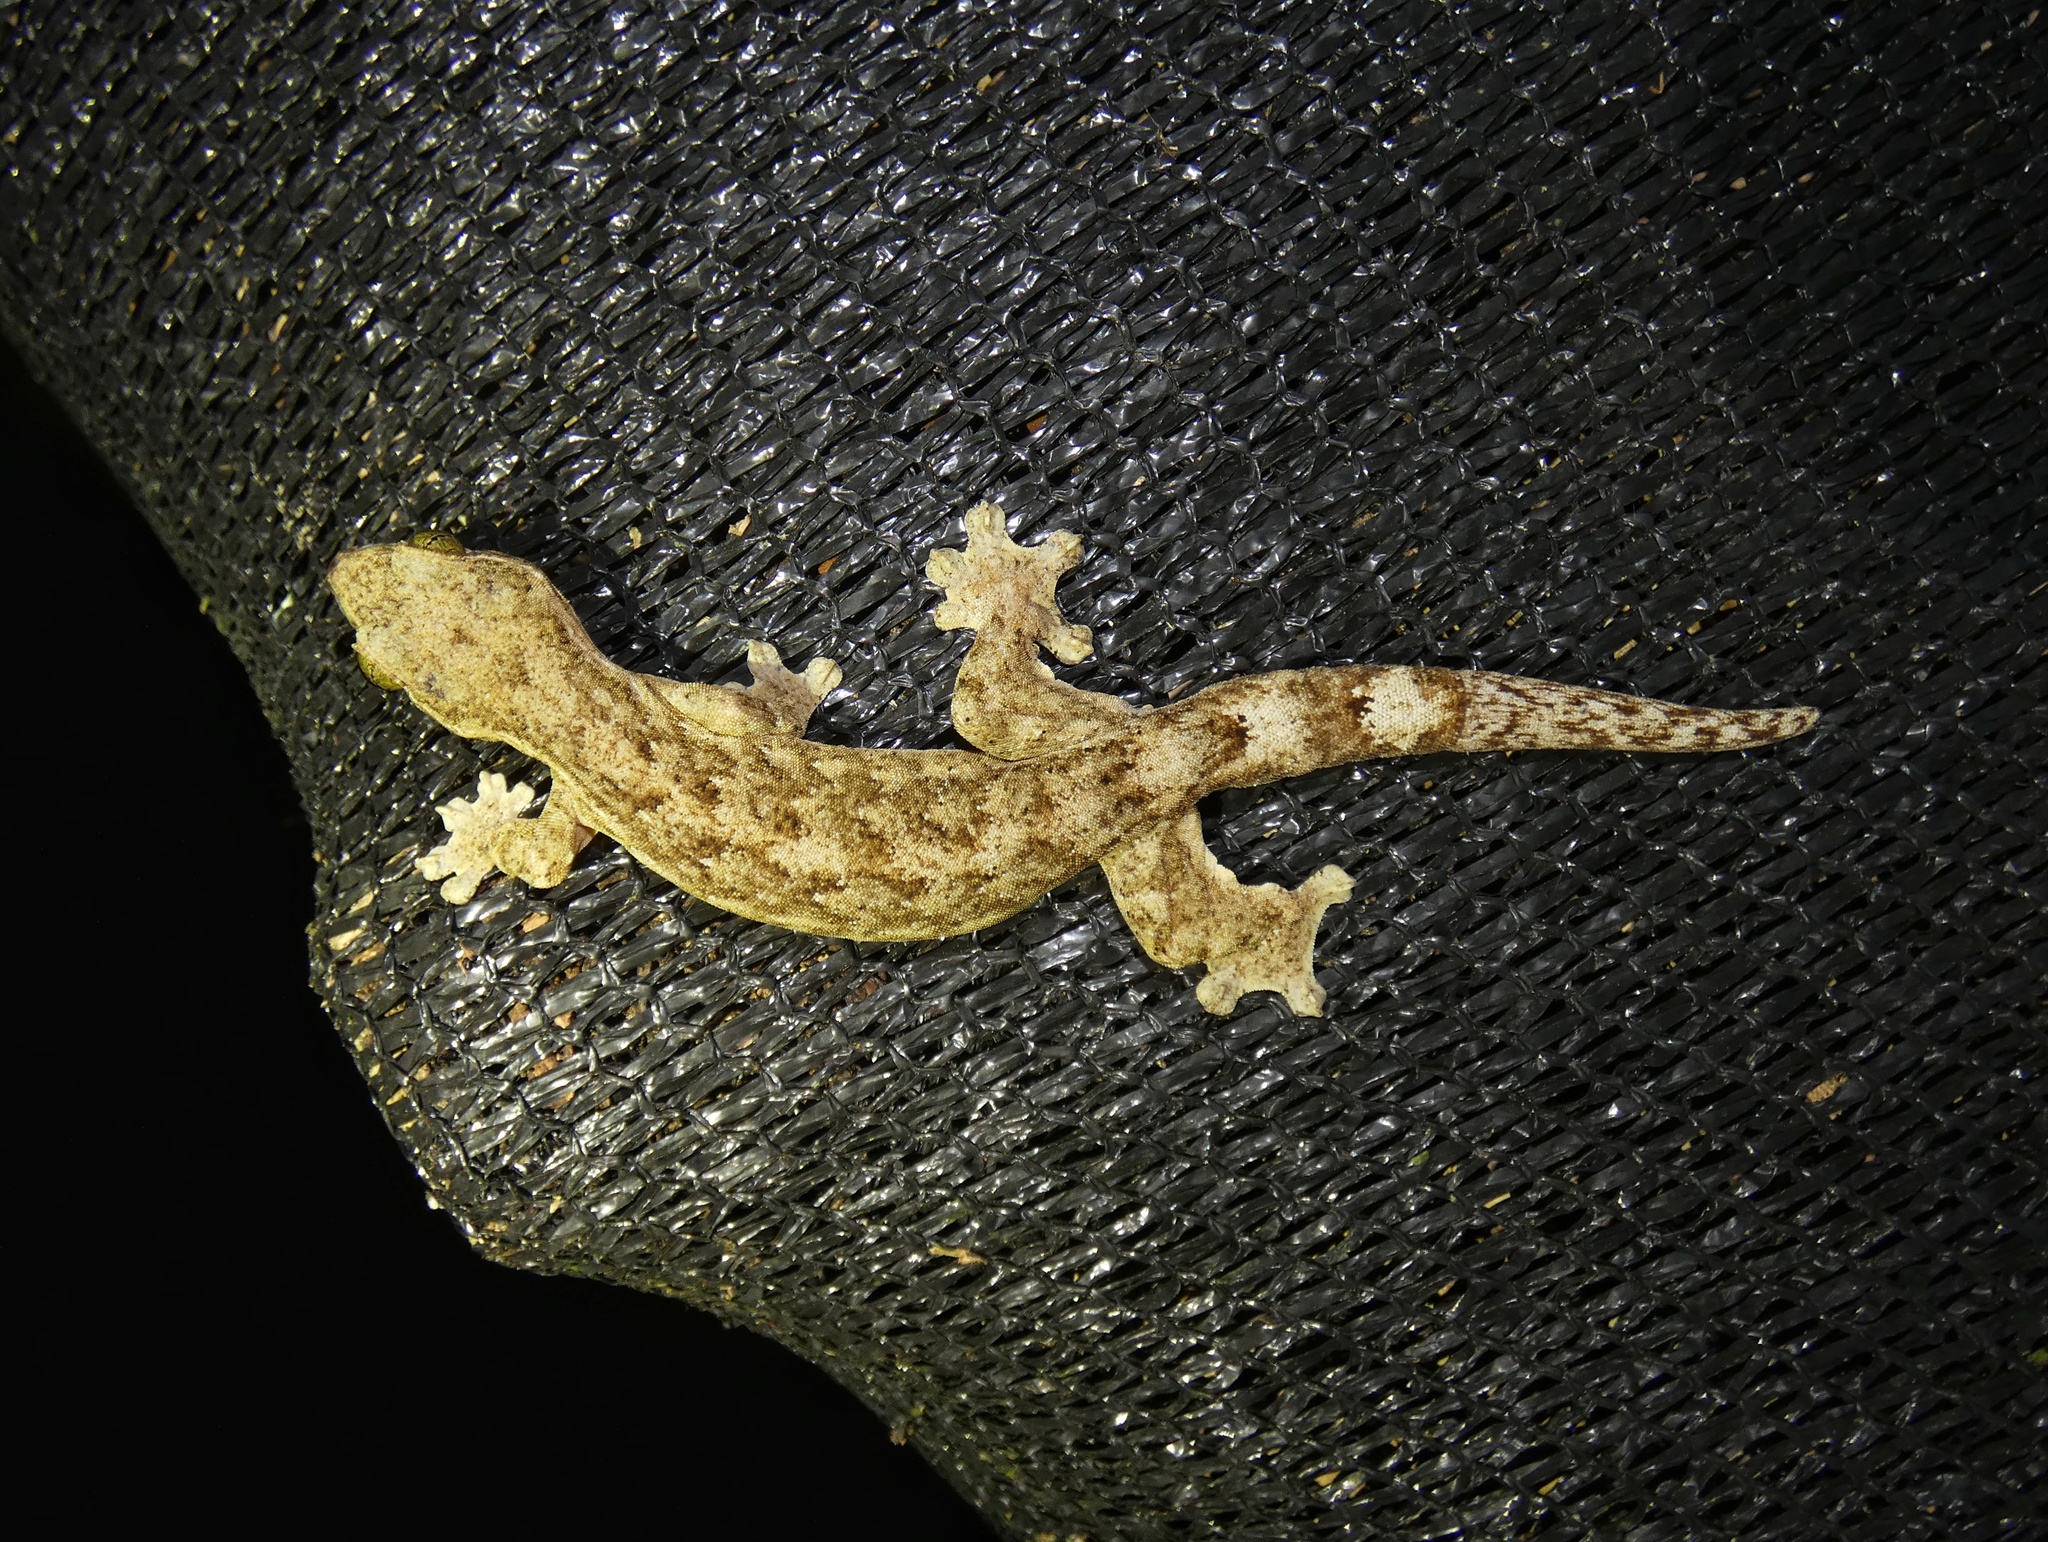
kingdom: Animalia
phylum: Chordata
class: Squamata
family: Phyllodactylidae
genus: Thecadactylus
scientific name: Thecadactylus rapicauda
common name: Turnip-tailed gecko
